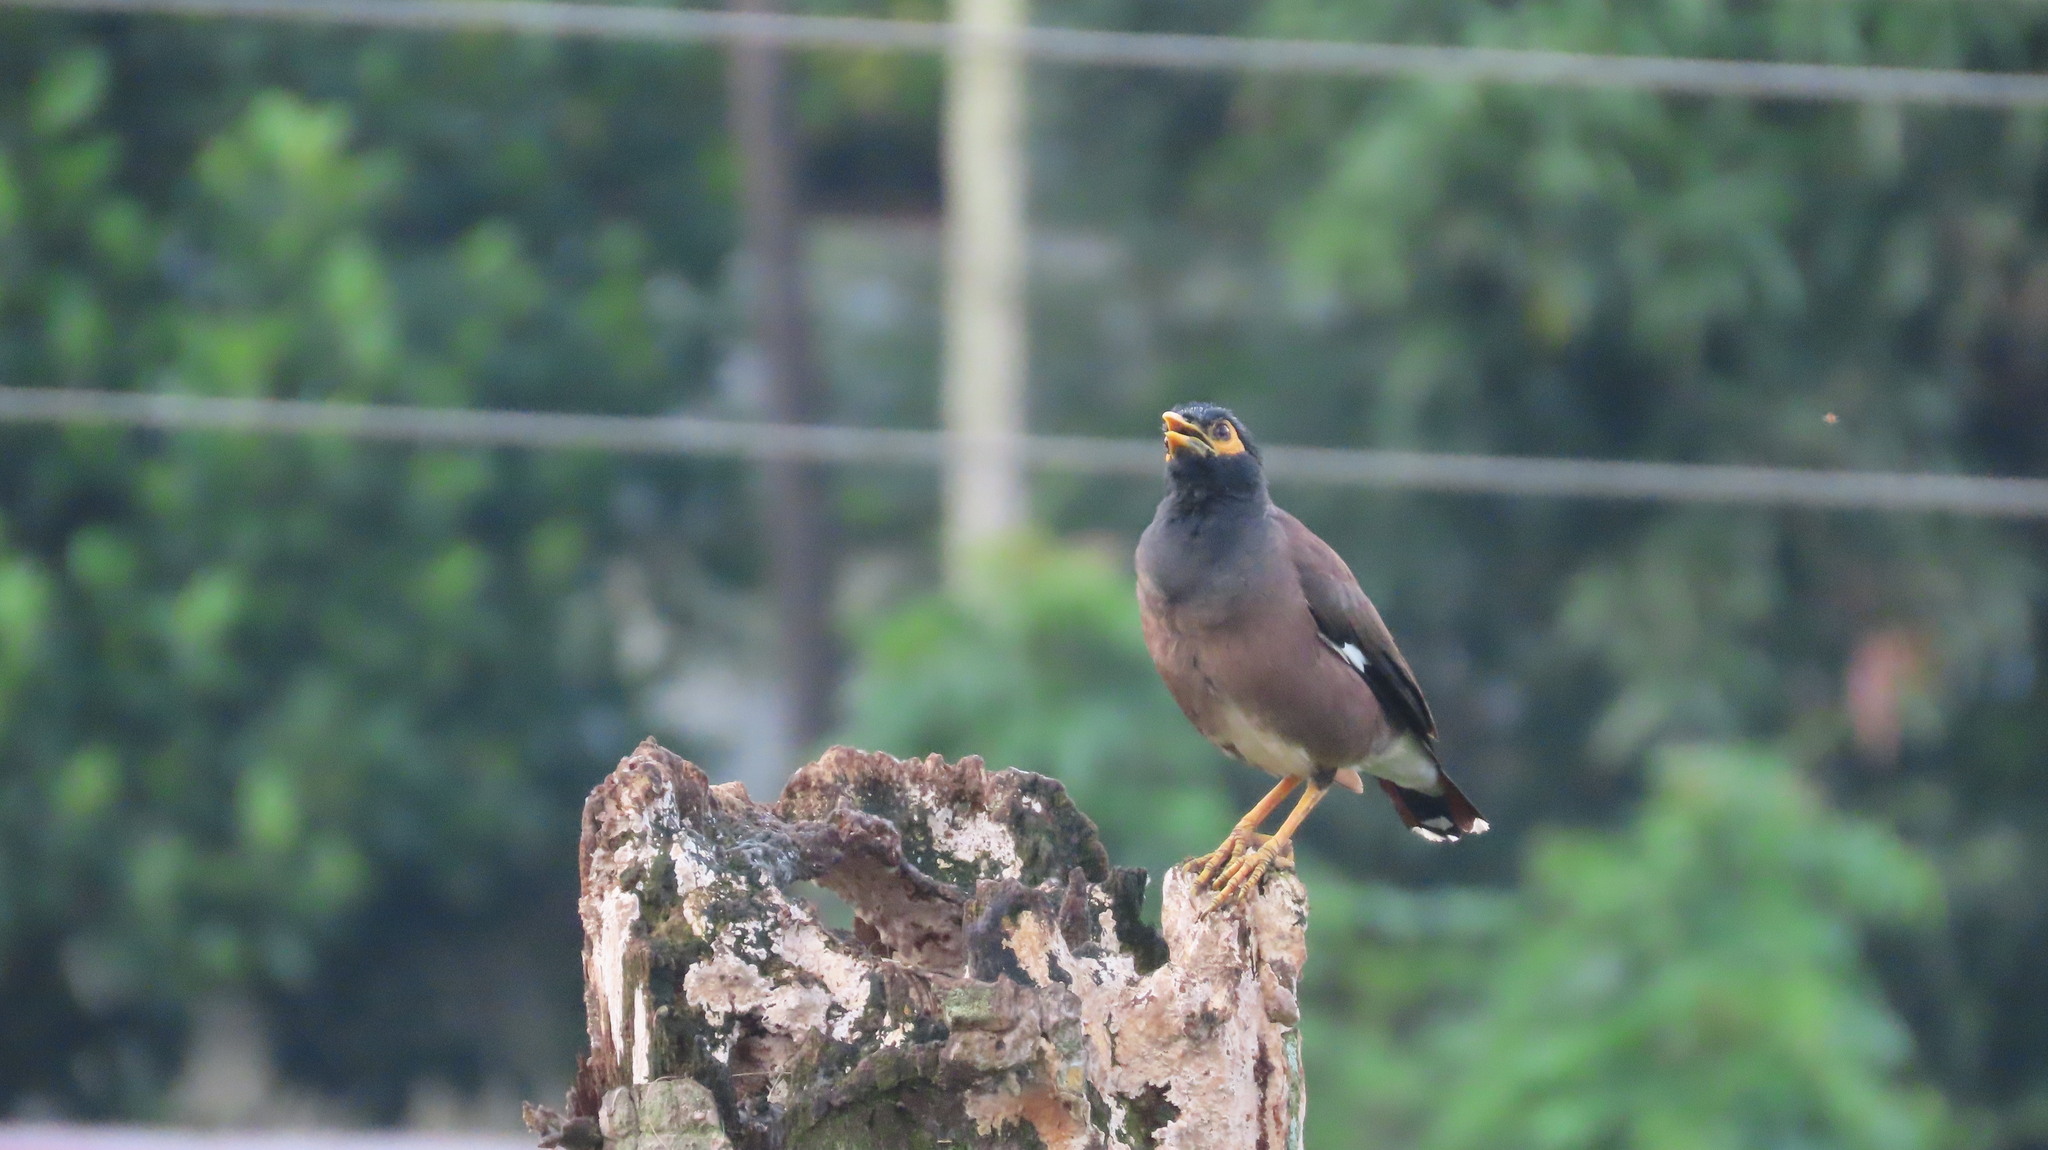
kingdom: Animalia
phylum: Chordata
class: Aves
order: Passeriformes
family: Sturnidae
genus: Acridotheres
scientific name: Acridotheres tristis
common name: Common myna
